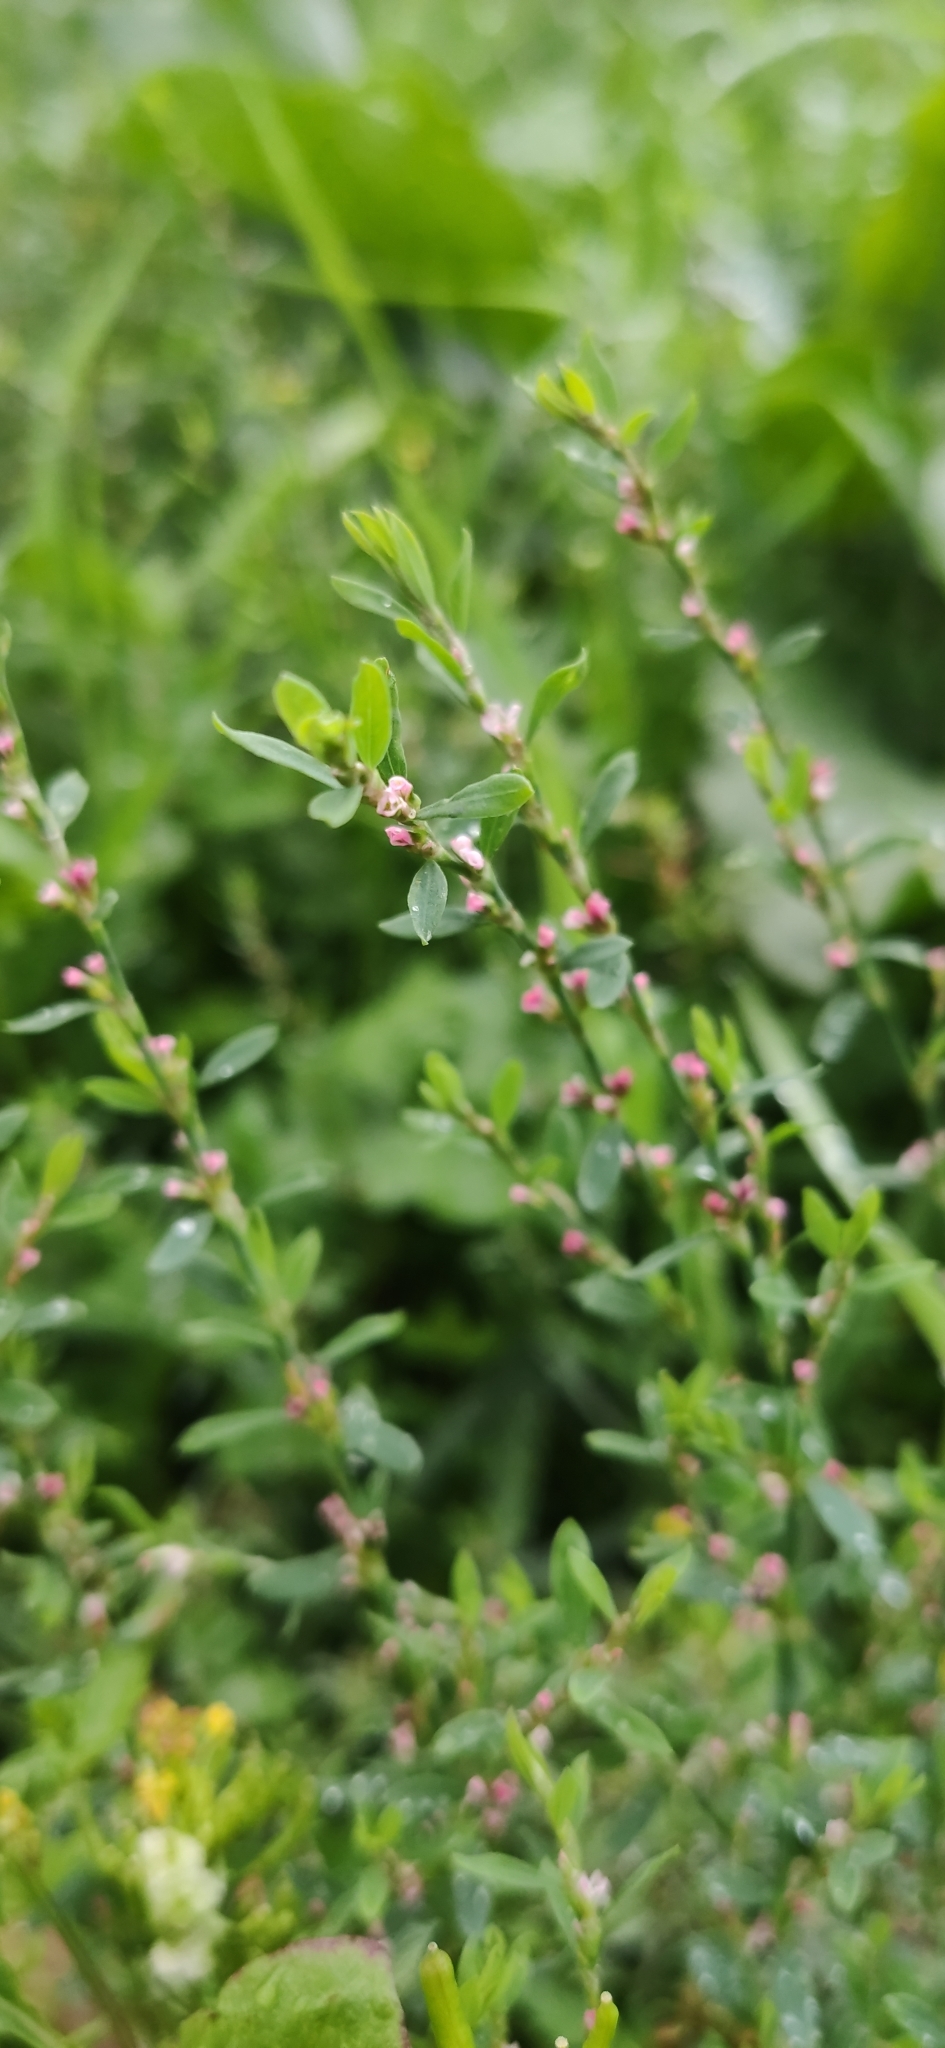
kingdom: Plantae
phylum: Tracheophyta
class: Magnoliopsida
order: Caryophyllales
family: Polygonaceae
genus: Polygonum
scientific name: Polygonum
